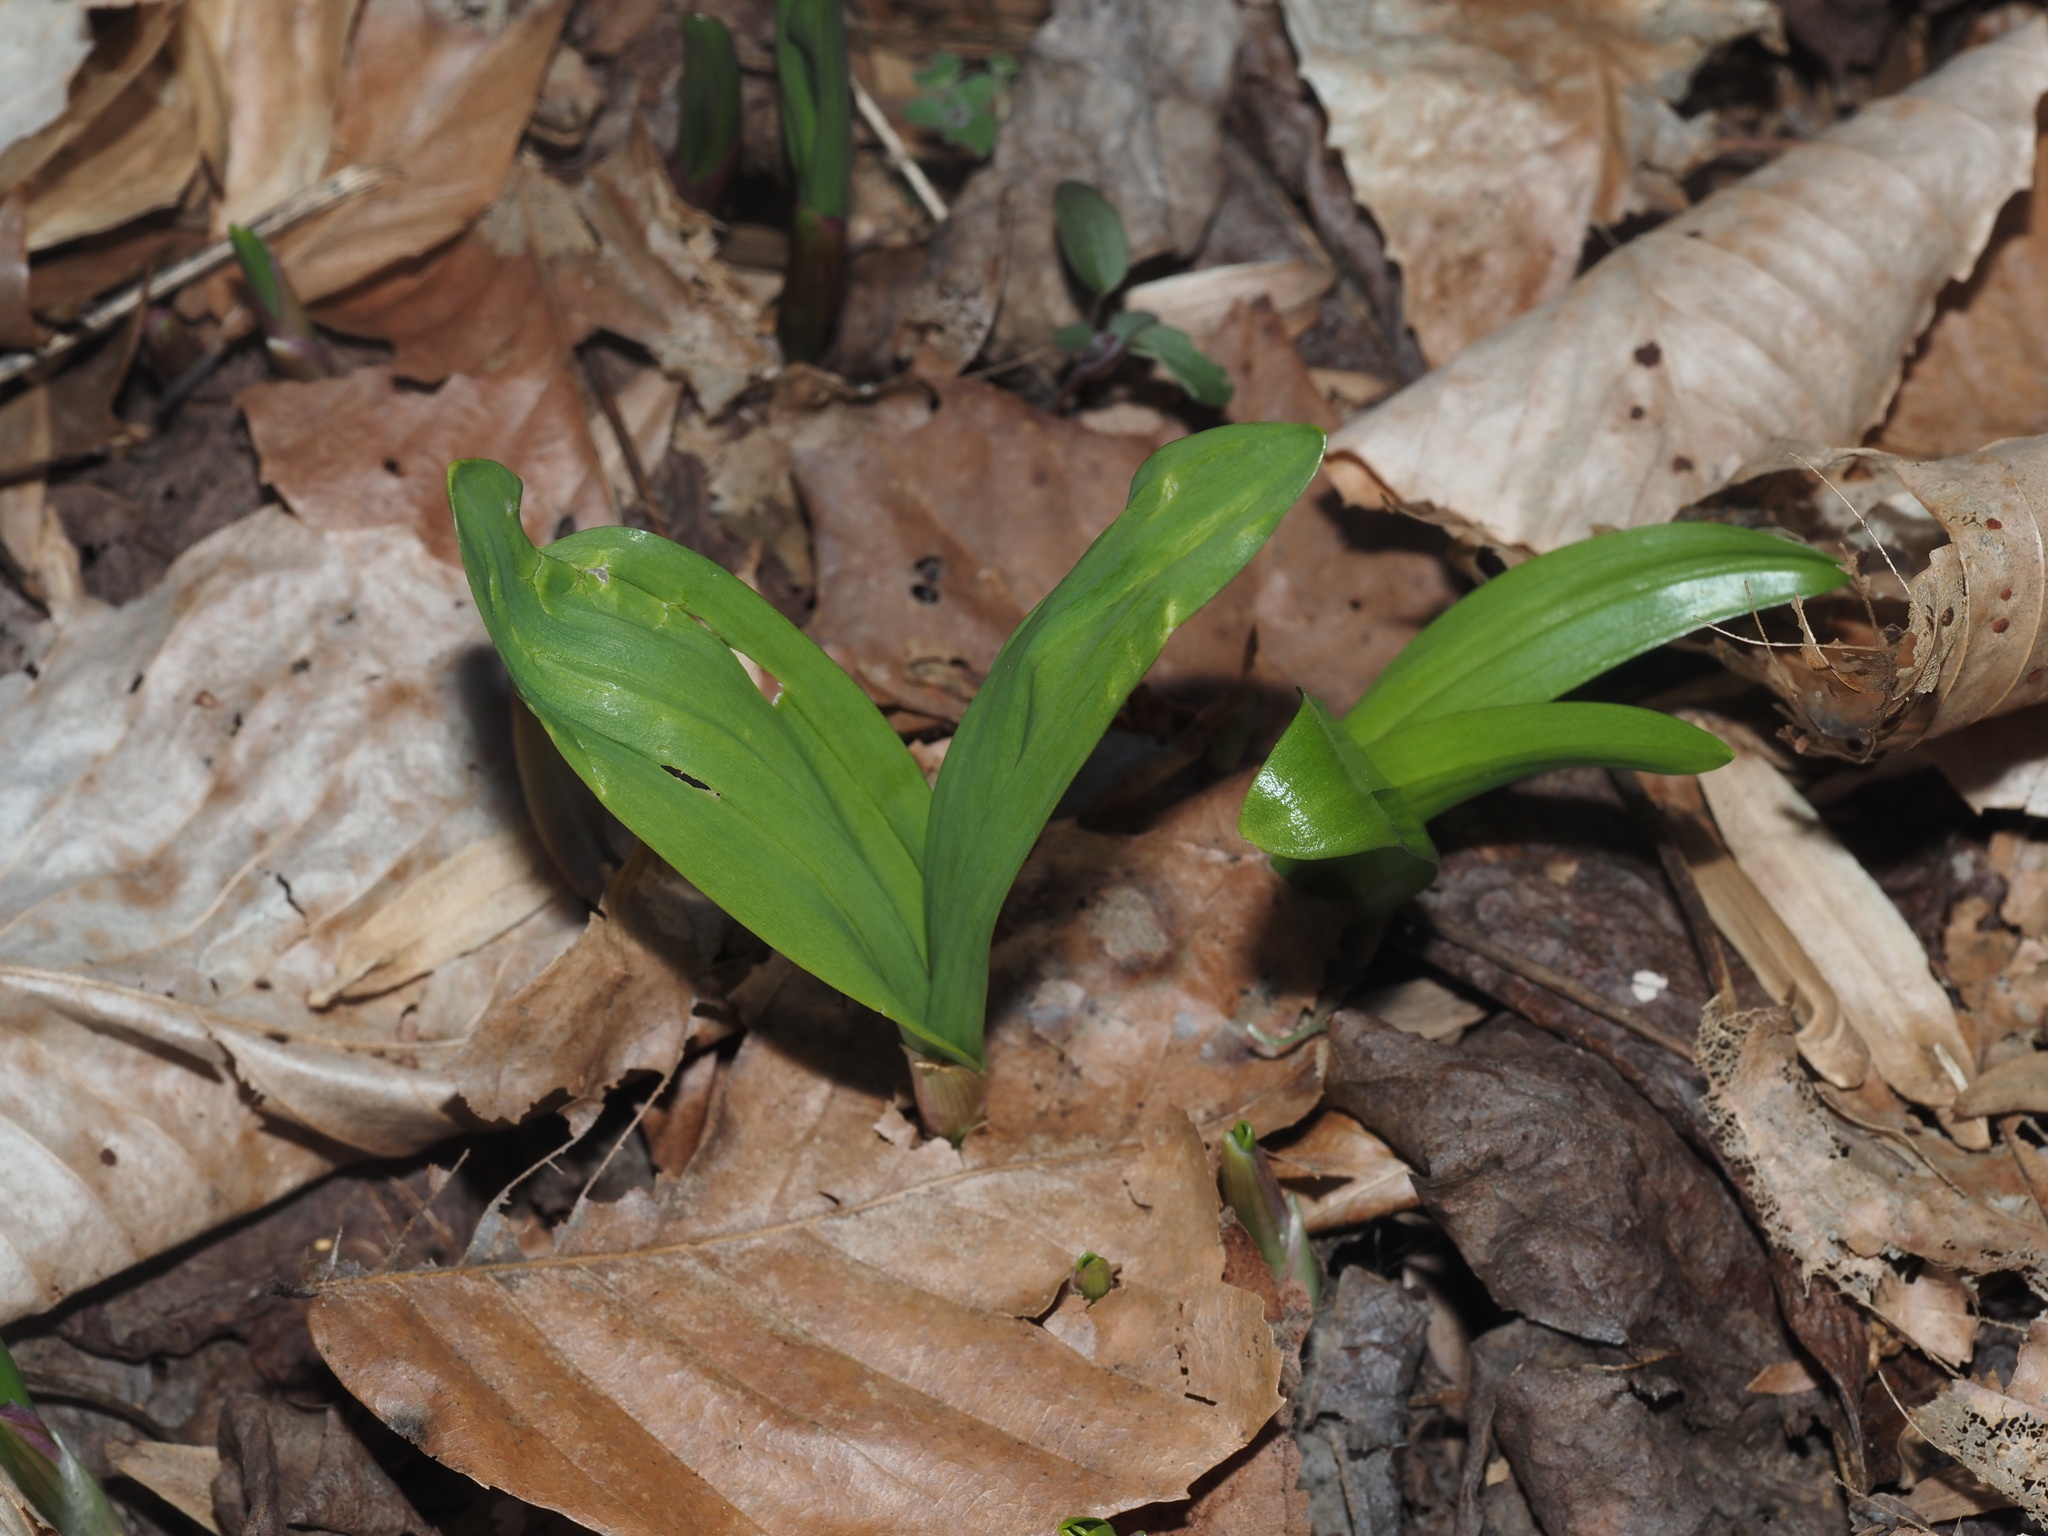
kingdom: Plantae
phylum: Tracheophyta
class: Liliopsida
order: Asparagales
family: Amaryllidaceae
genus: Allium
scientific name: Allium tricoccum
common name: Ramp
